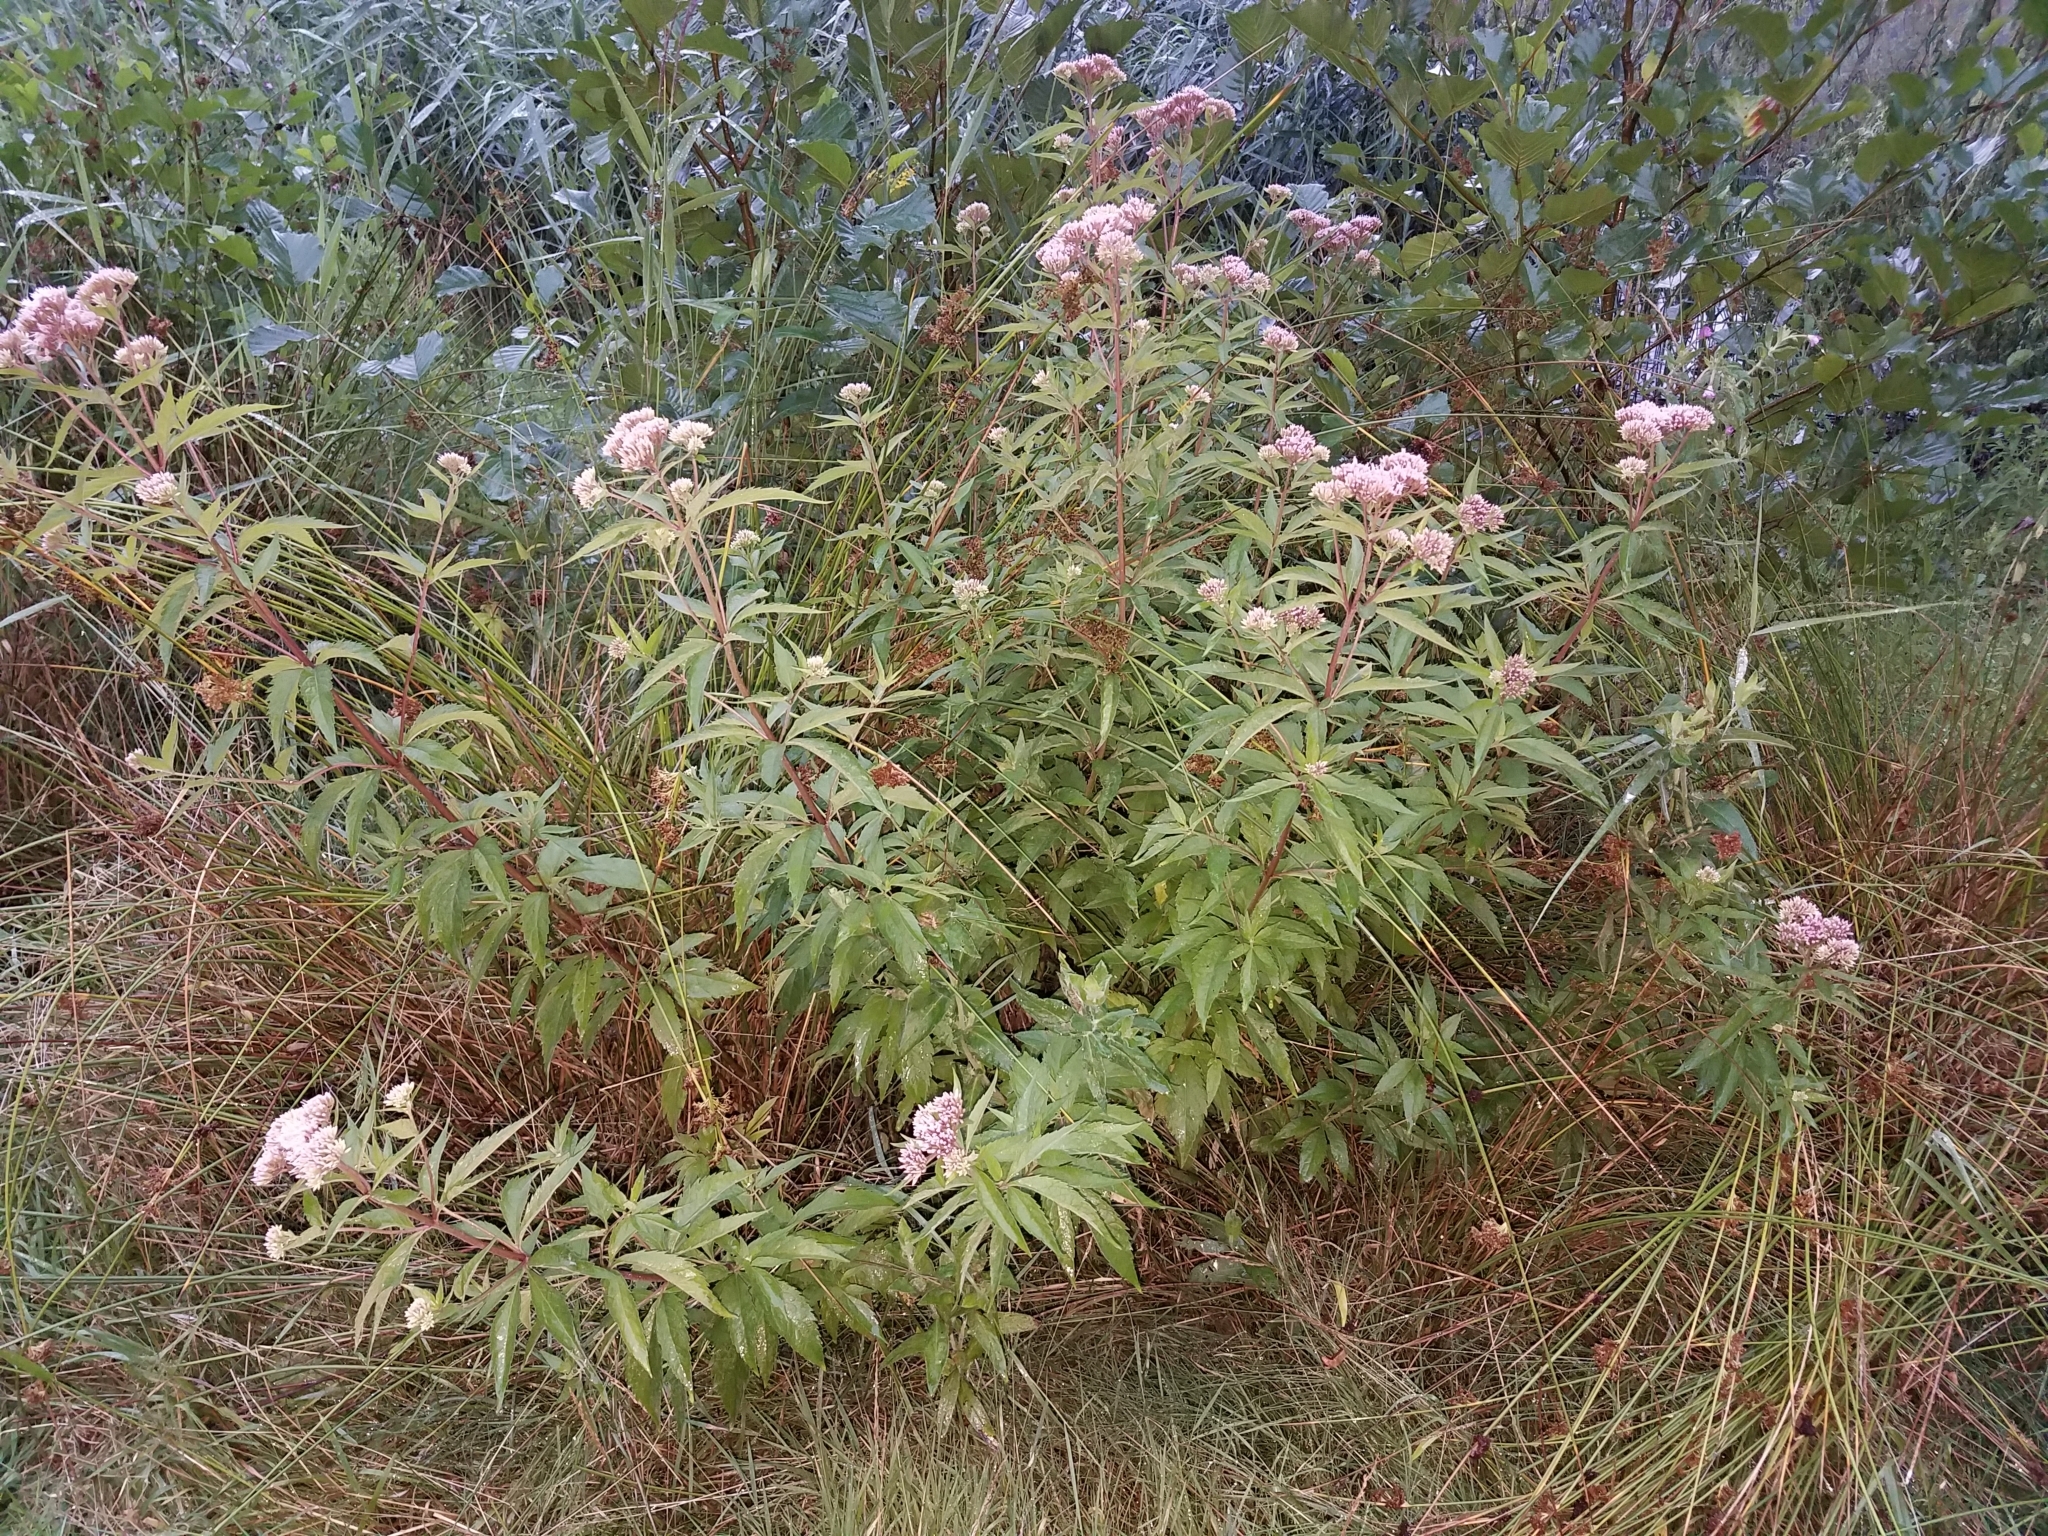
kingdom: Plantae
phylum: Tracheophyta
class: Magnoliopsida
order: Asterales
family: Asteraceae
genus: Eupatorium
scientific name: Eupatorium cannabinum
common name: Hemp-agrimony
